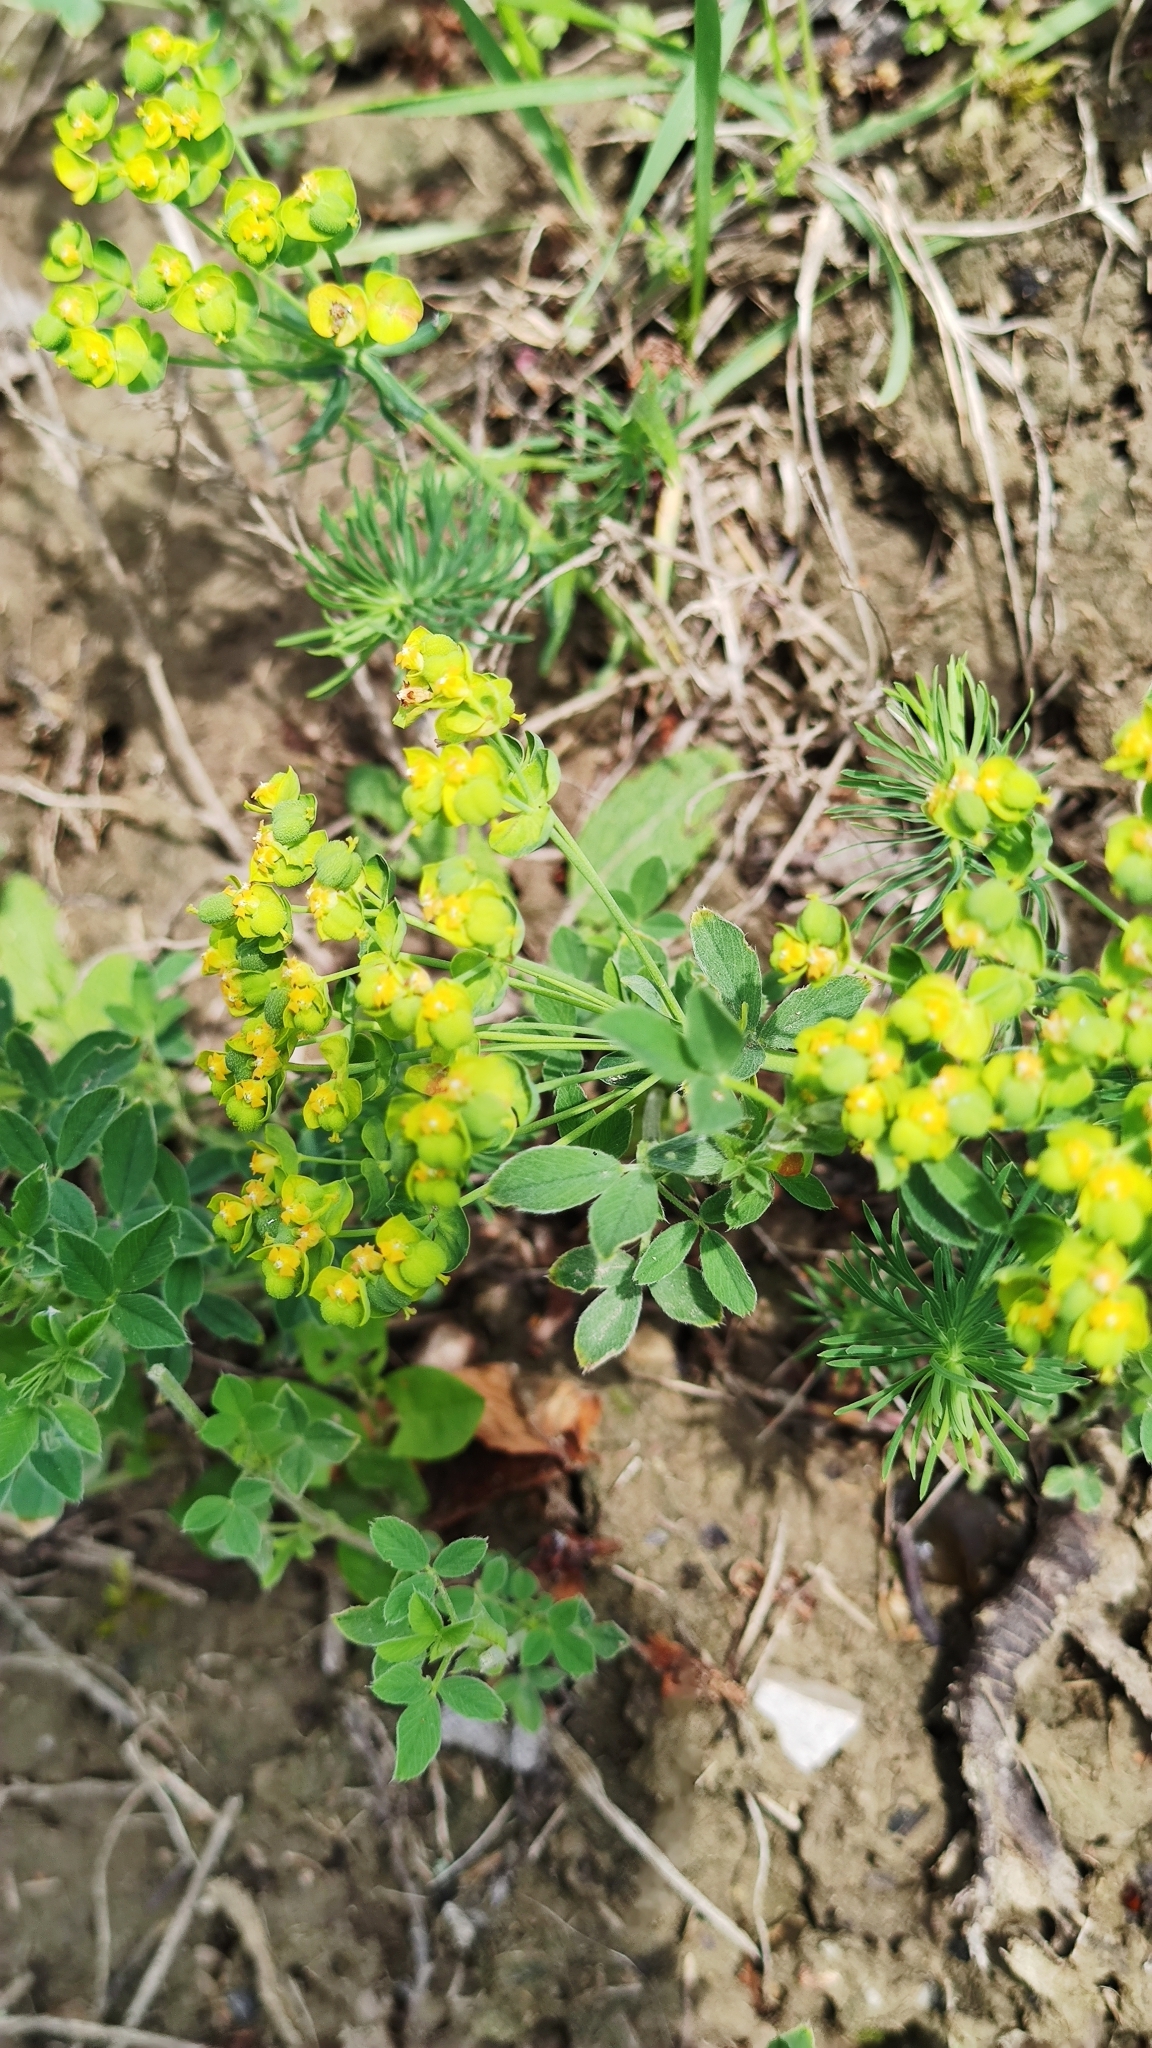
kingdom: Plantae
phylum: Tracheophyta
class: Magnoliopsida
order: Malpighiales
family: Euphorbiaceae
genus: Euphorbia
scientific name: Euphorbia cyparissias
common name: Cypress spurge
